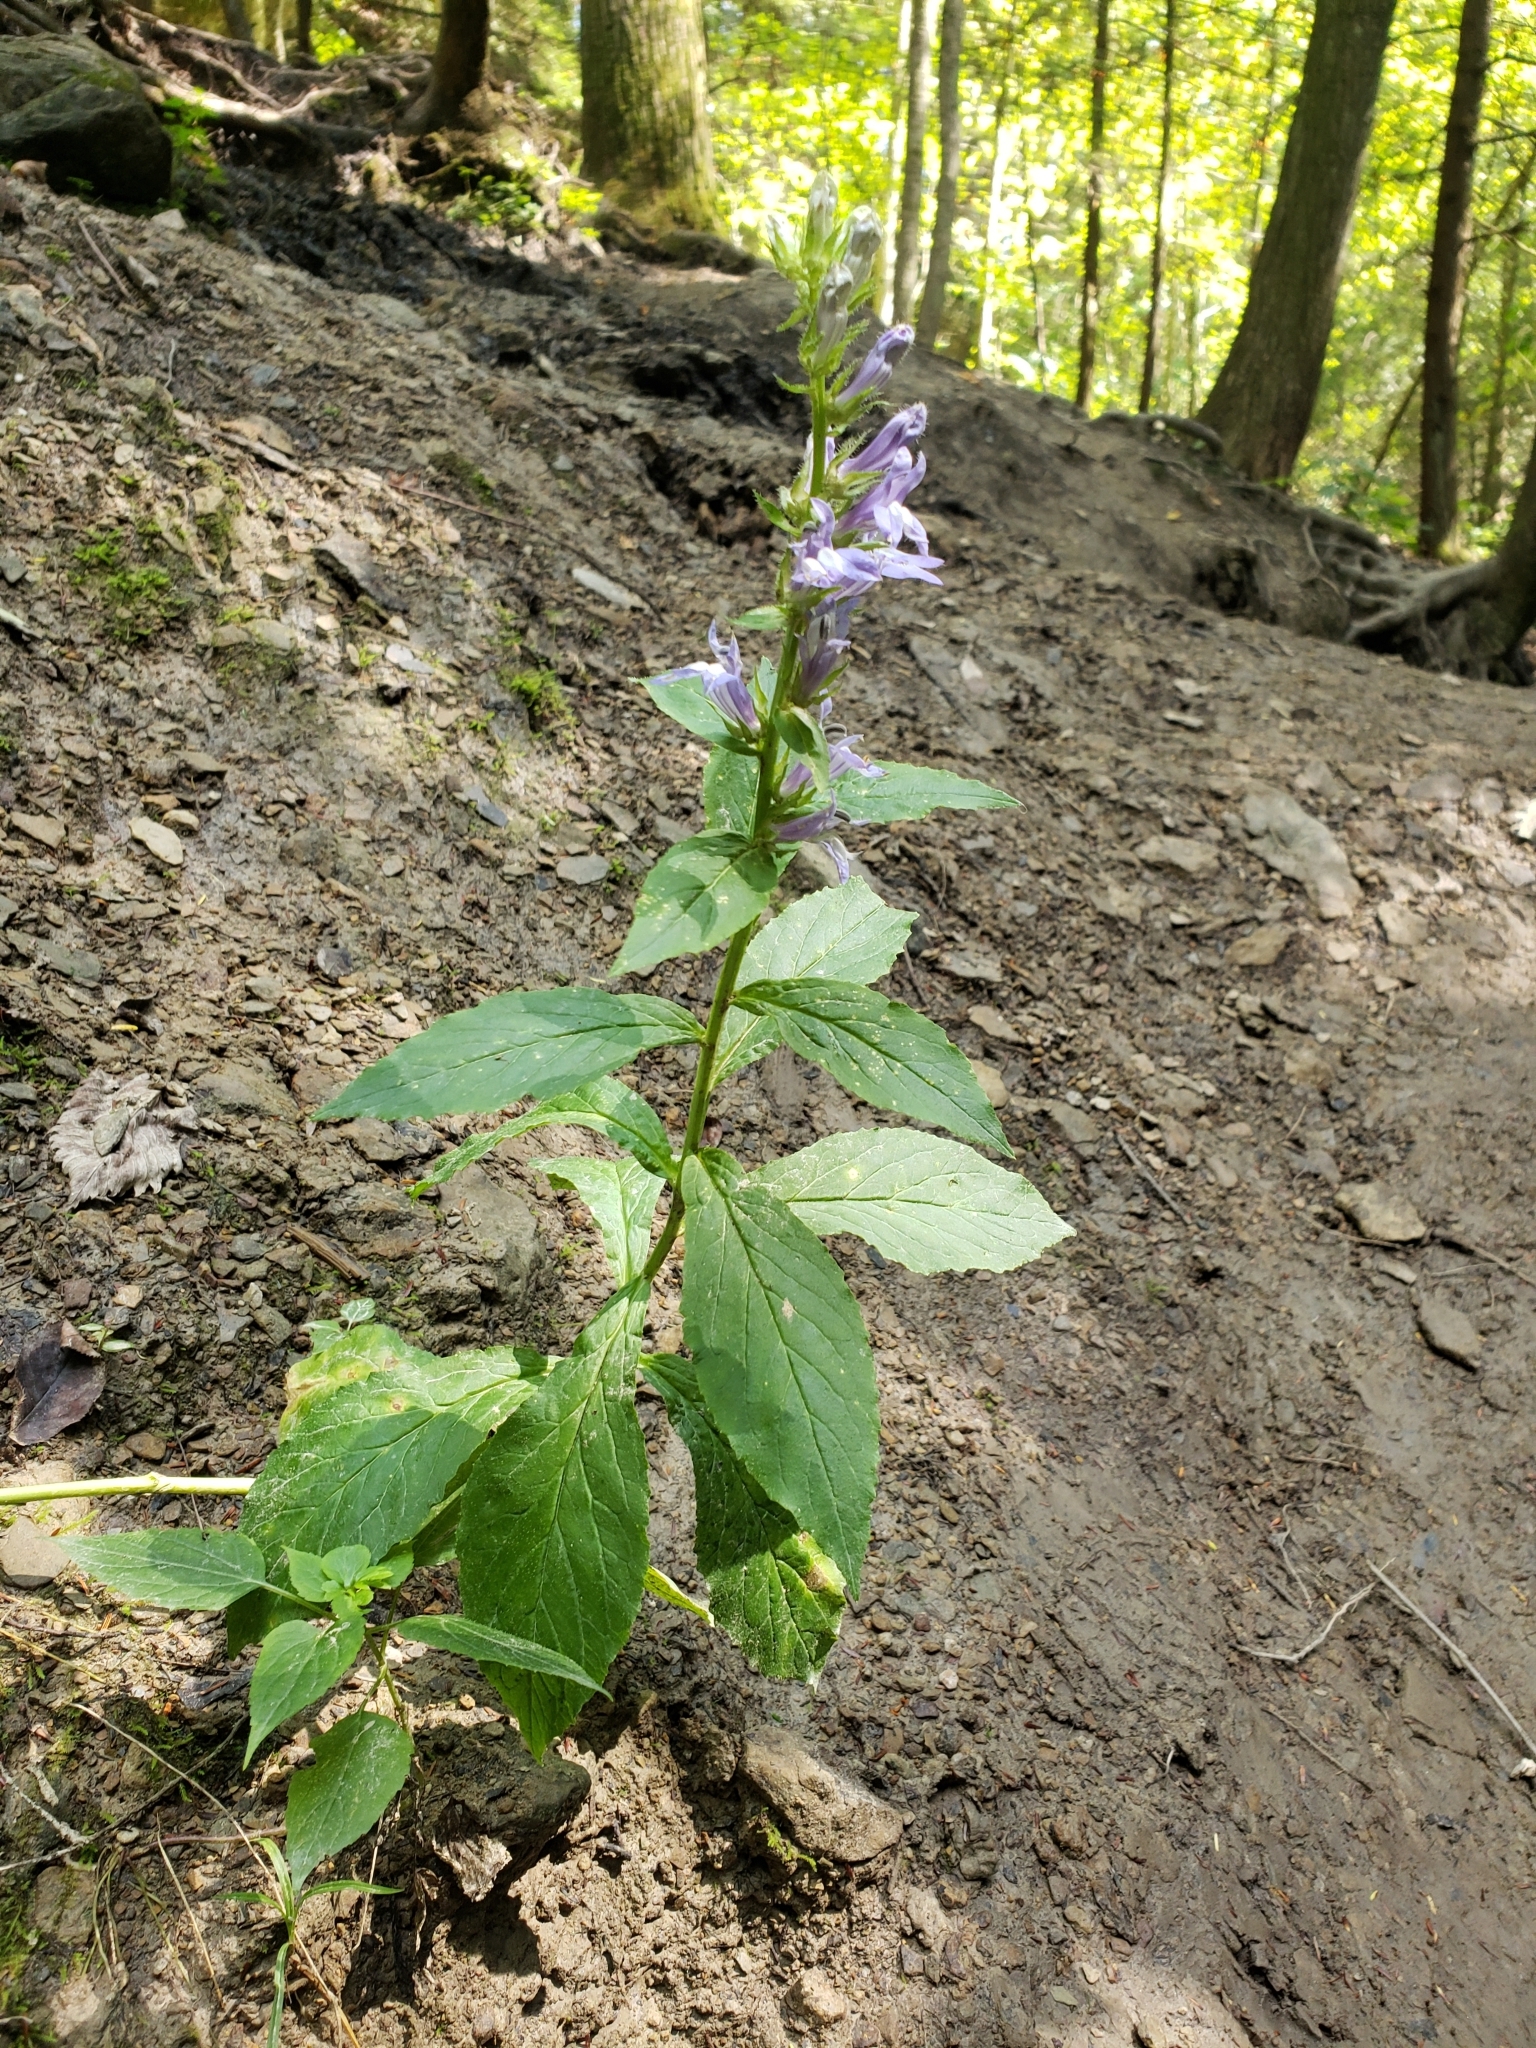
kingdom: Plantae
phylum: Tracheophyta
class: Magnoliopsida
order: Asterales
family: Campanulaceae
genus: Lobelia
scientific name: Lobelia siphilitica
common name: Great lobelia
